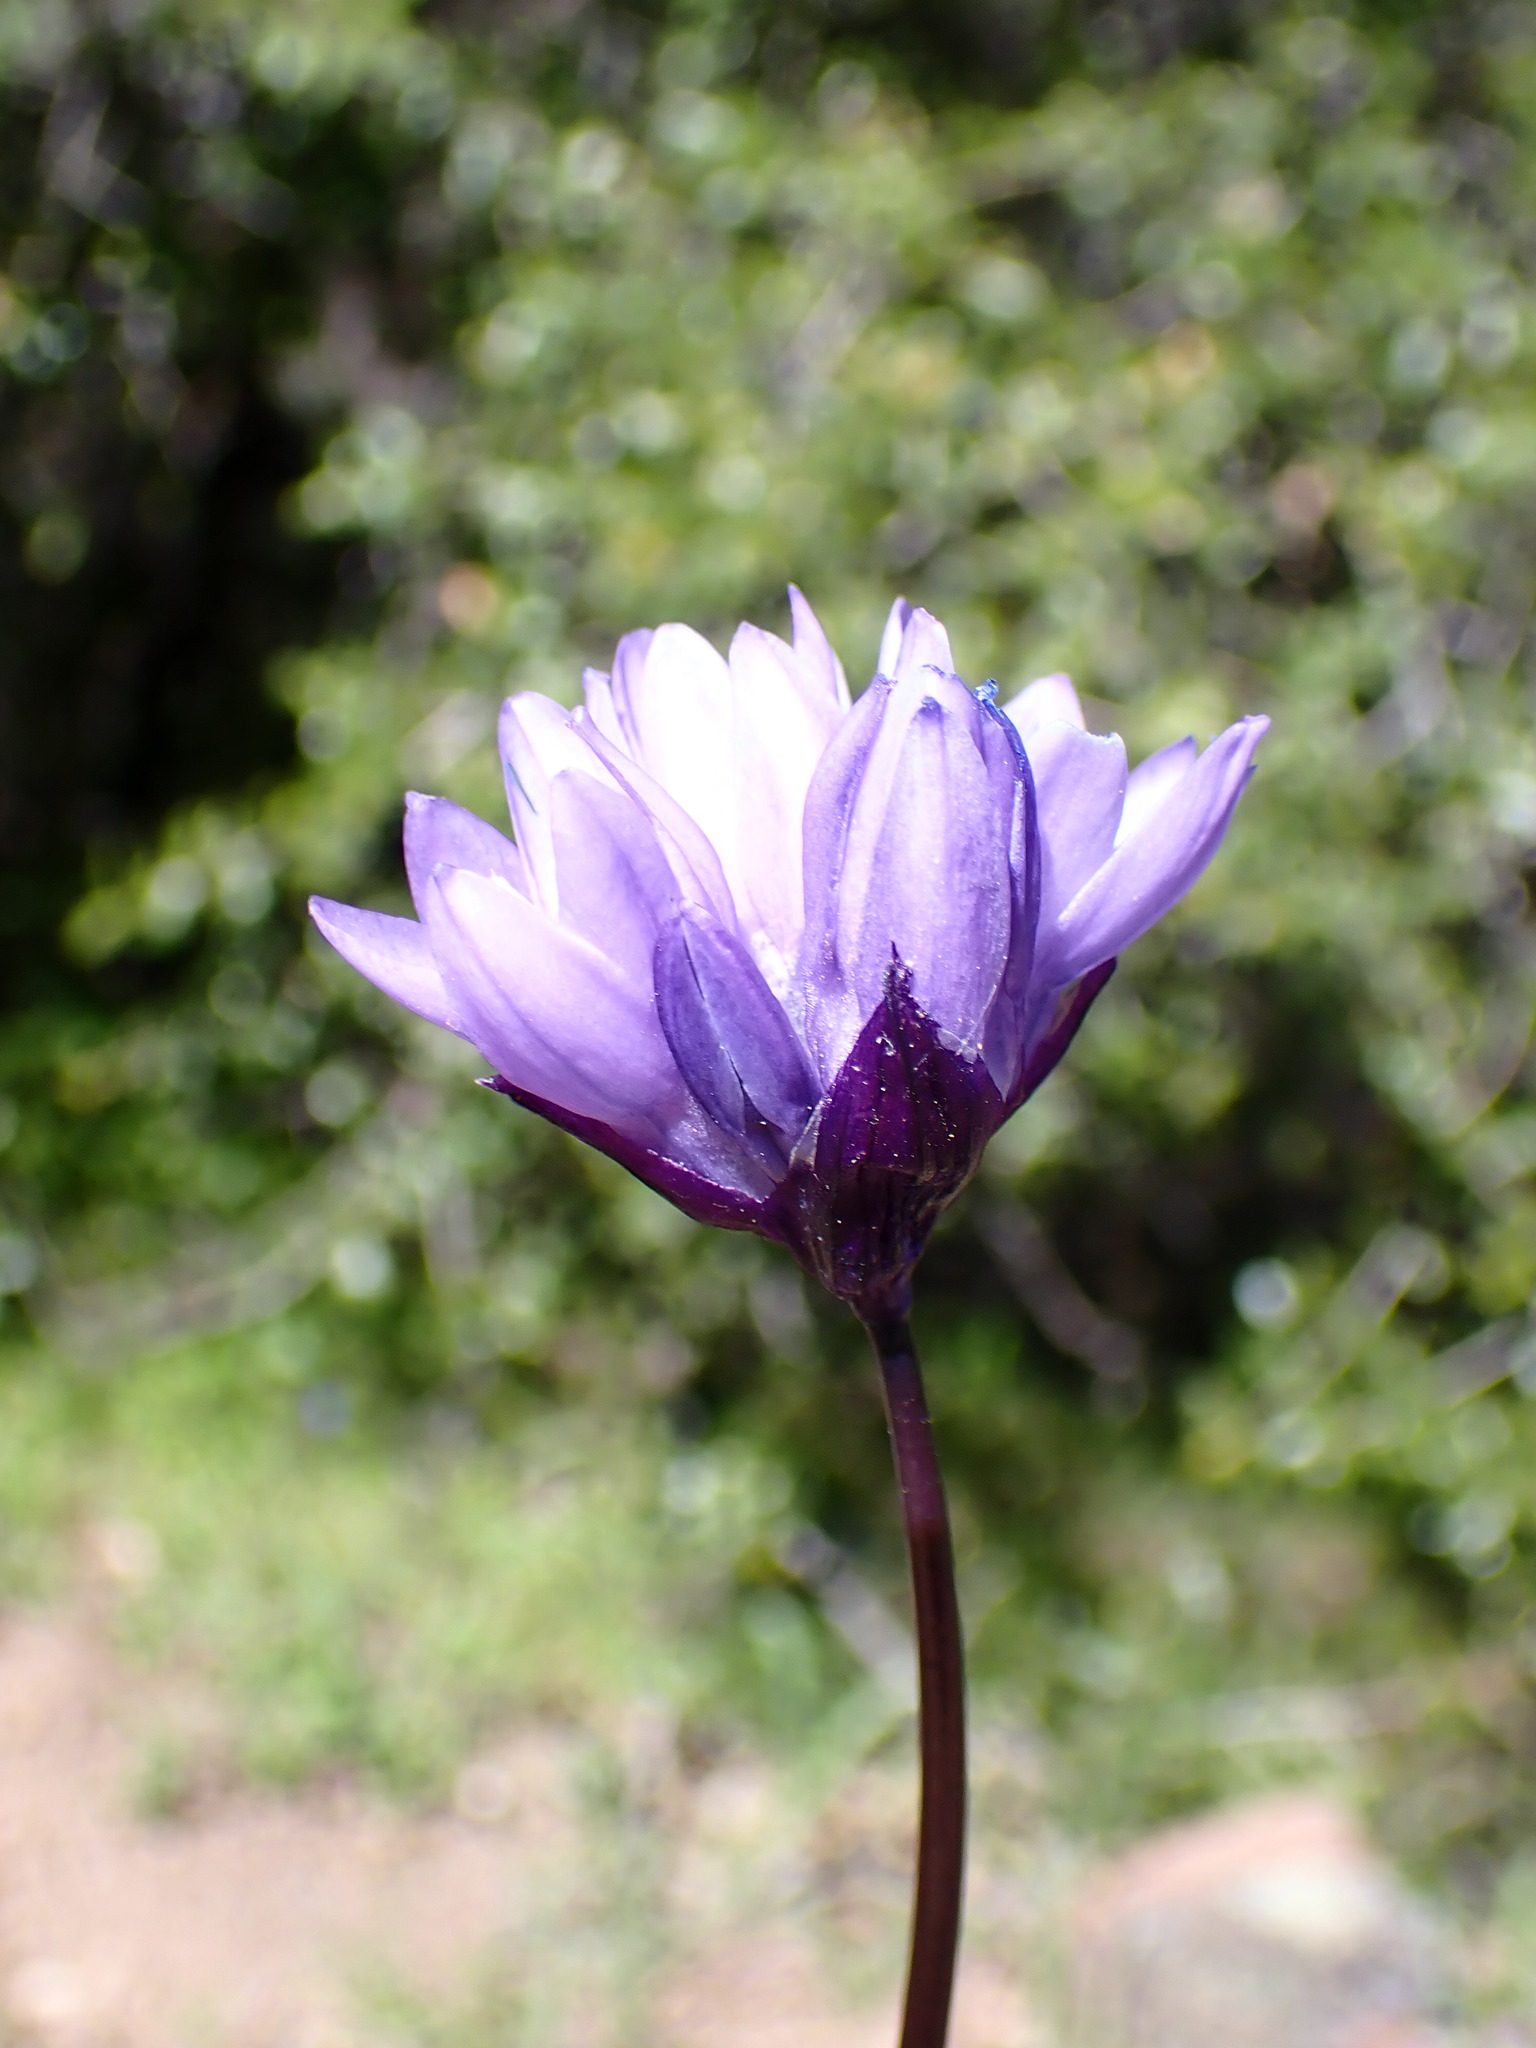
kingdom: Plantae
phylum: Tracheophyta
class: Liliopsida
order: Asparagales
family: Asparagaceae
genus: Dipterostemon
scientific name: Dipterostemon capitatus
